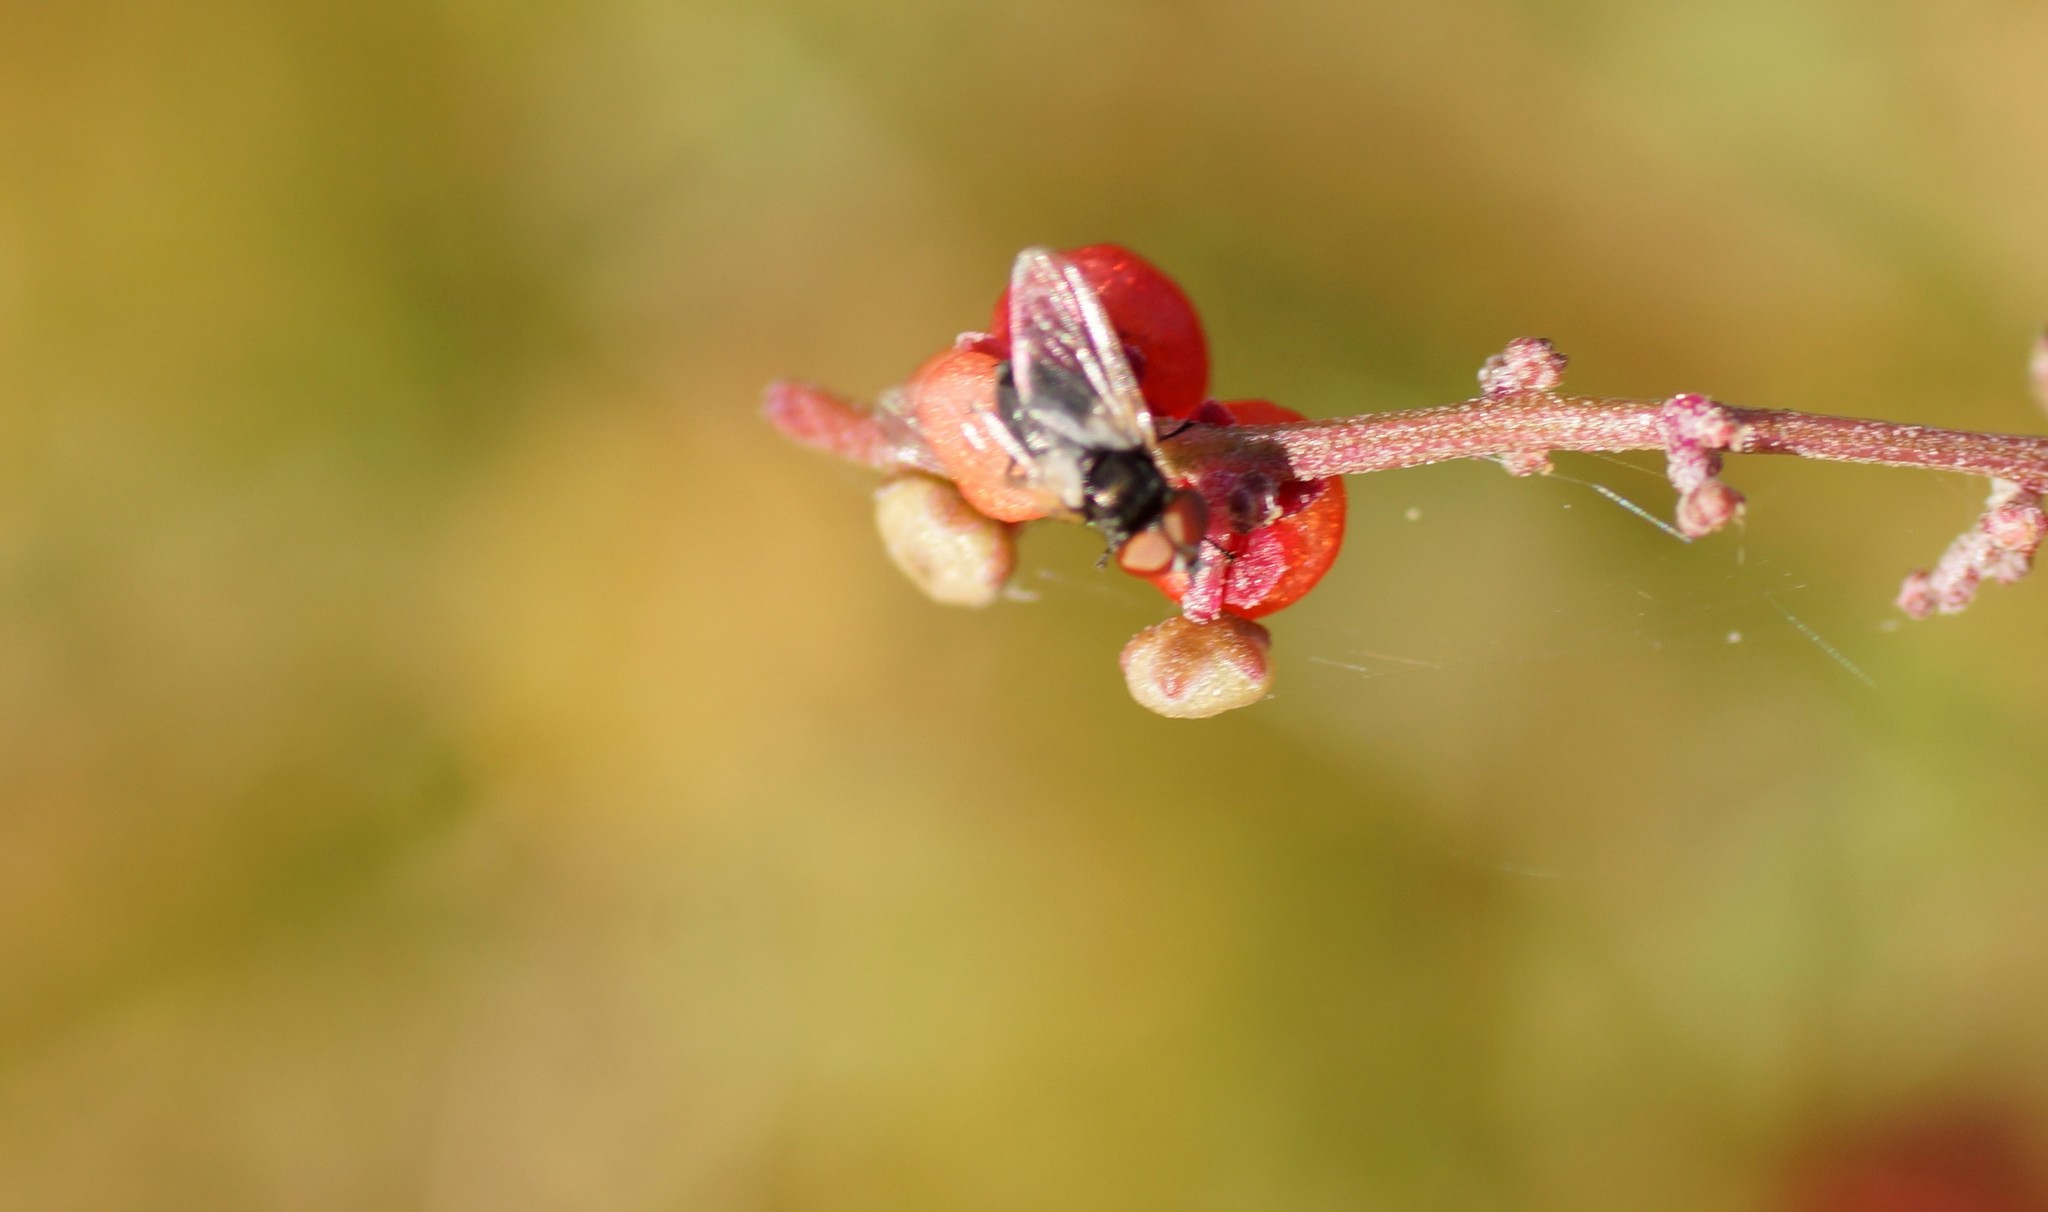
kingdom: Animalia
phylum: Arthropoda
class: Insecta
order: Diptera
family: Tachinidae
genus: Phasia
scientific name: Phasia
